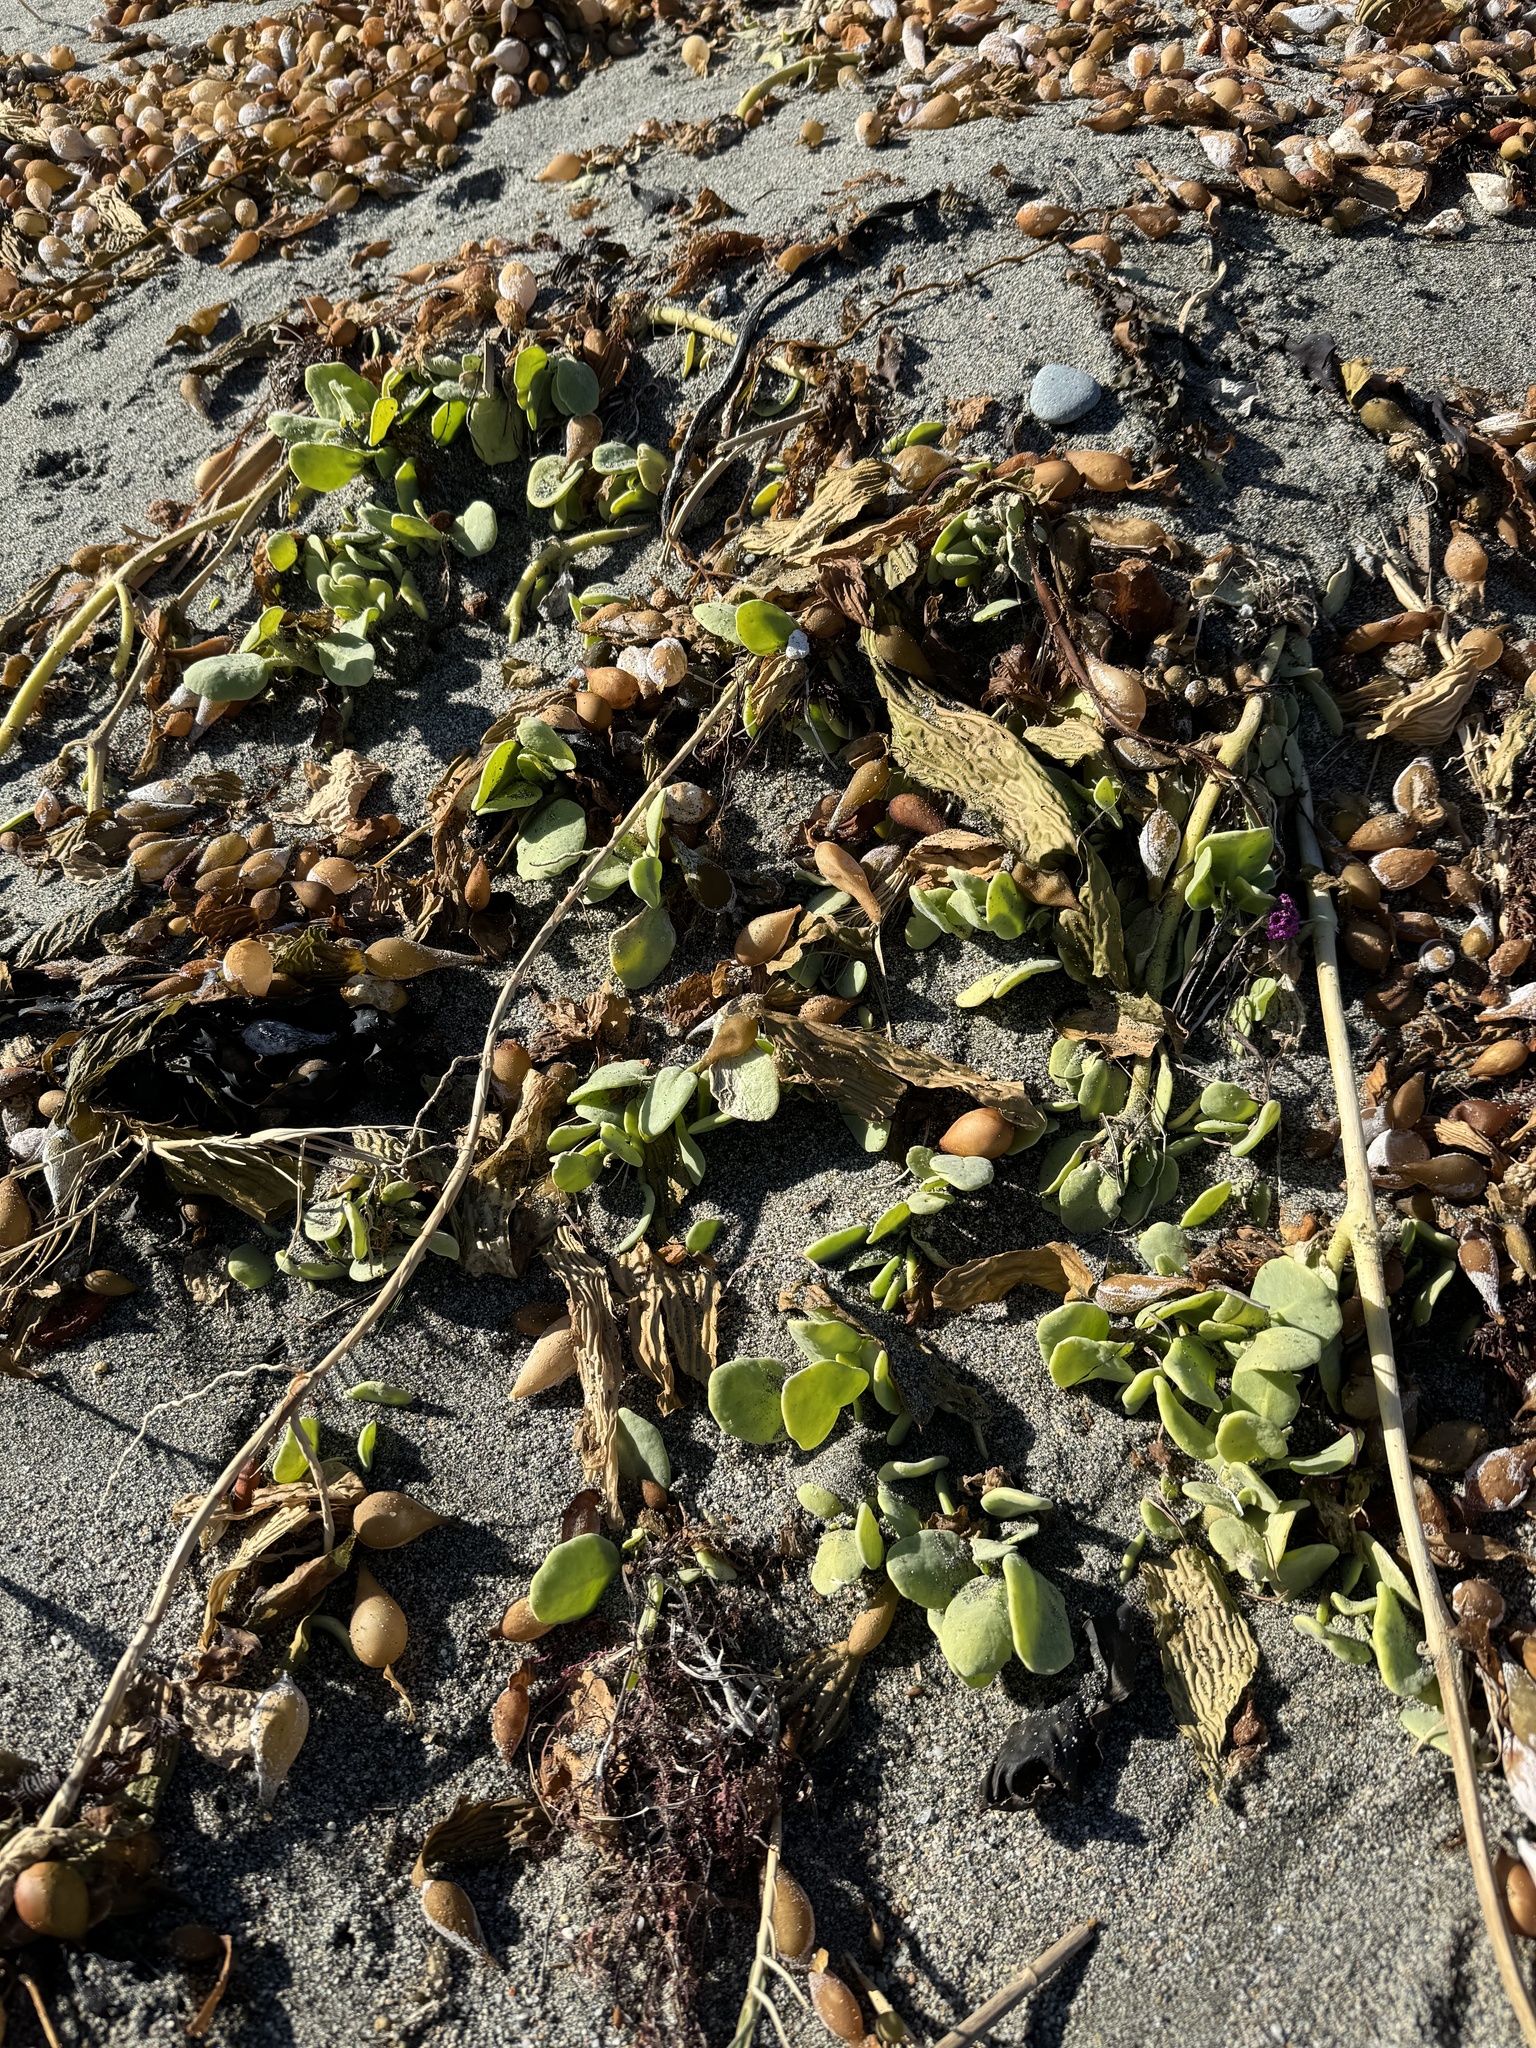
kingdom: Plantae
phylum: Tracheophyta
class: Magnoliopsida
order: Caryophyllales
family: Nyctaginaceae
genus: Abronia
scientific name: Abronia maritima
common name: Red sand-verbena
